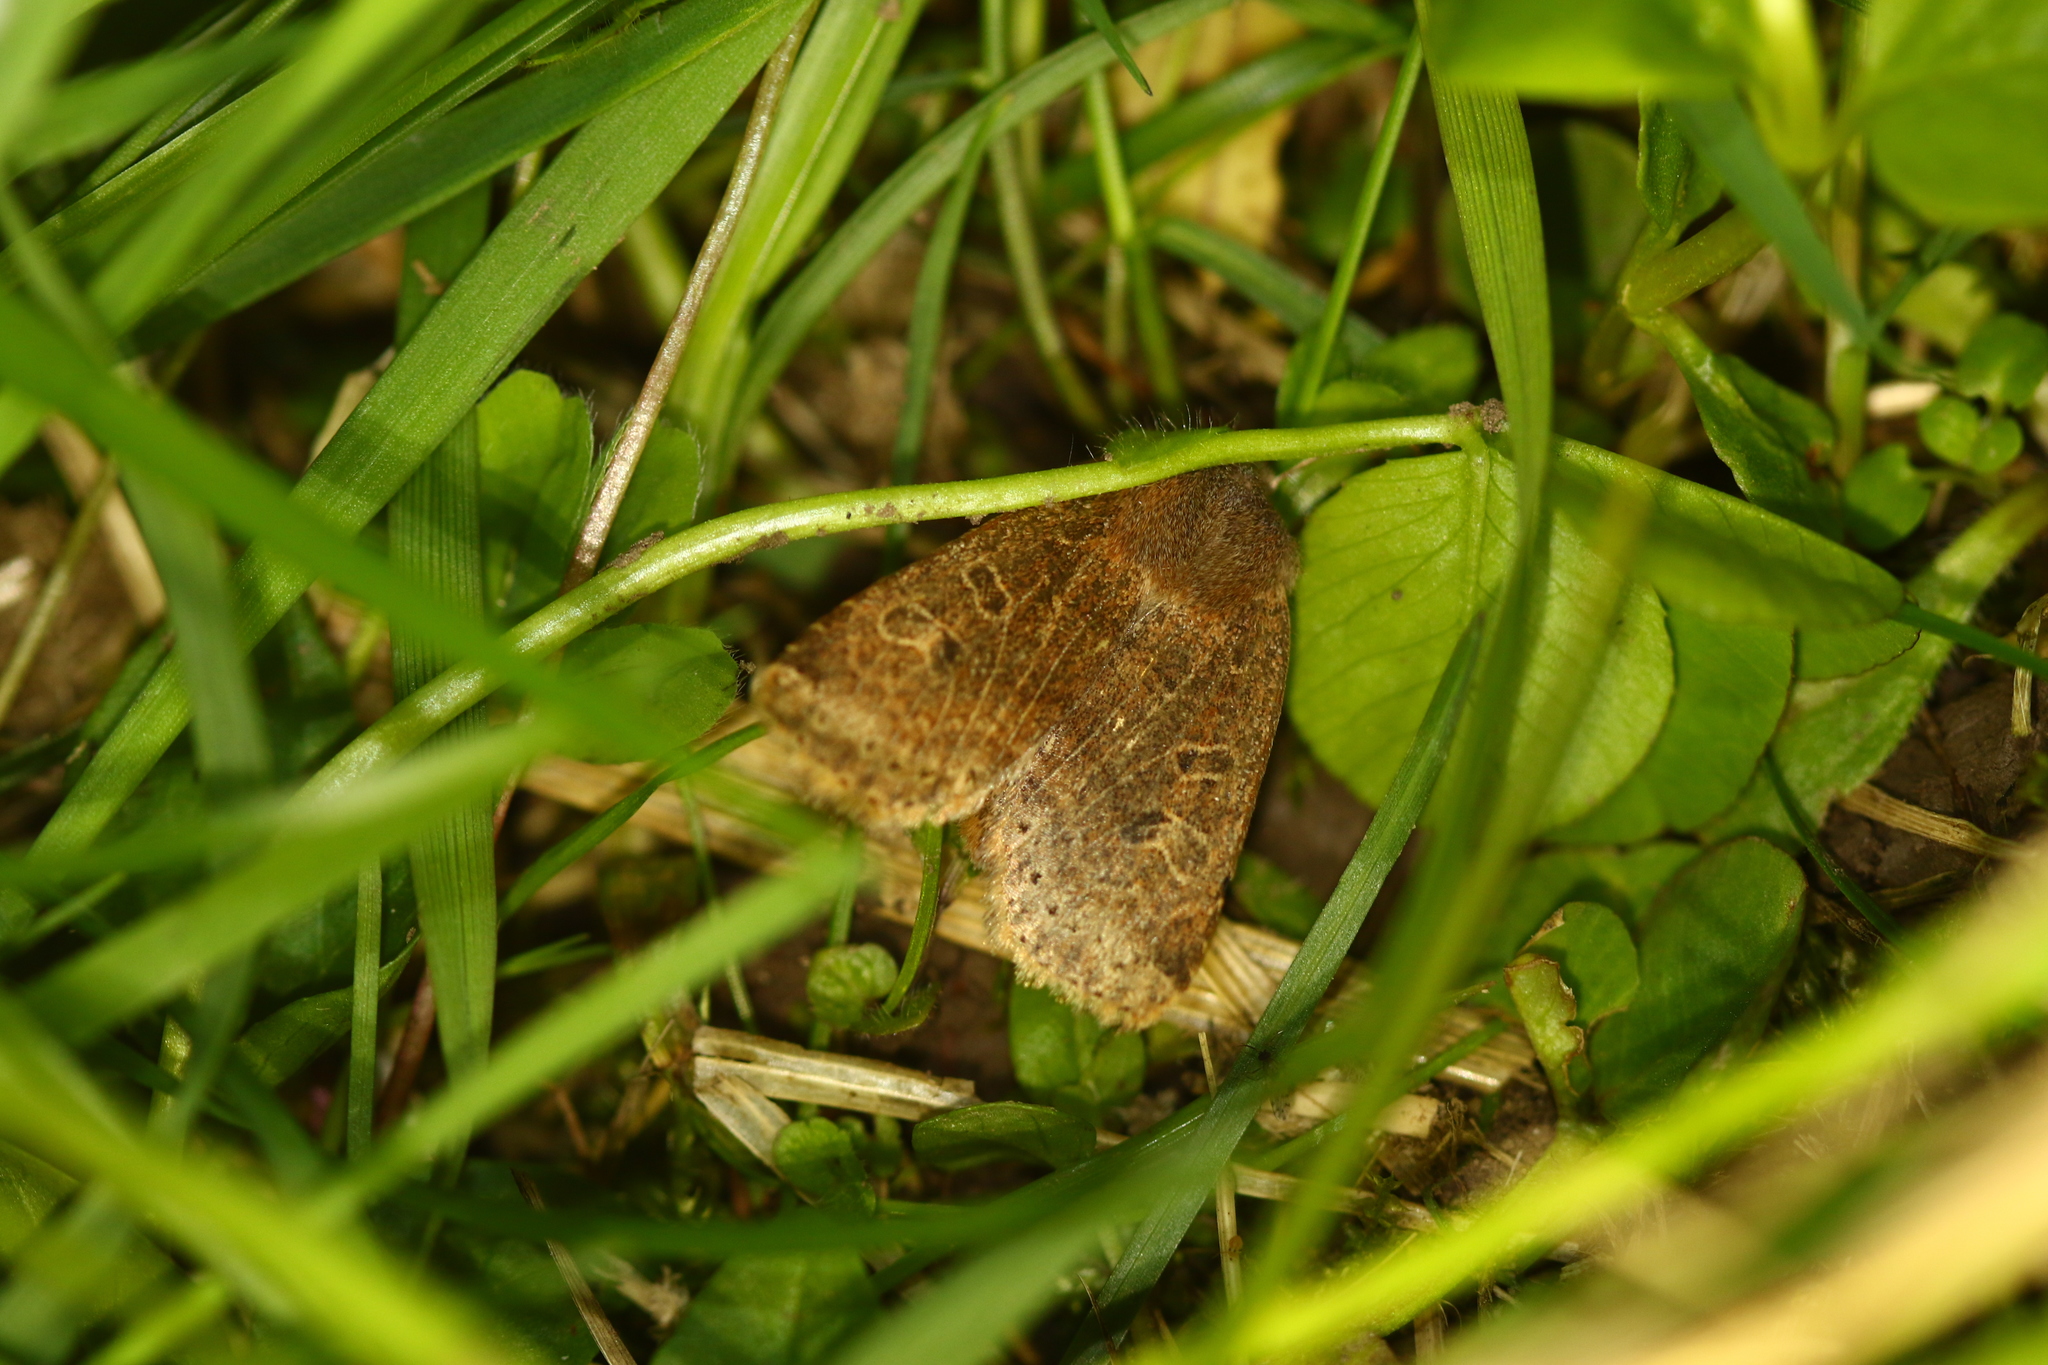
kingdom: Animalia
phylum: Arthropoda
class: Insecta
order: Lepidoptera
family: Noctuidae
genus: Conistra
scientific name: Conistra vaccinii
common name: Chestnut
